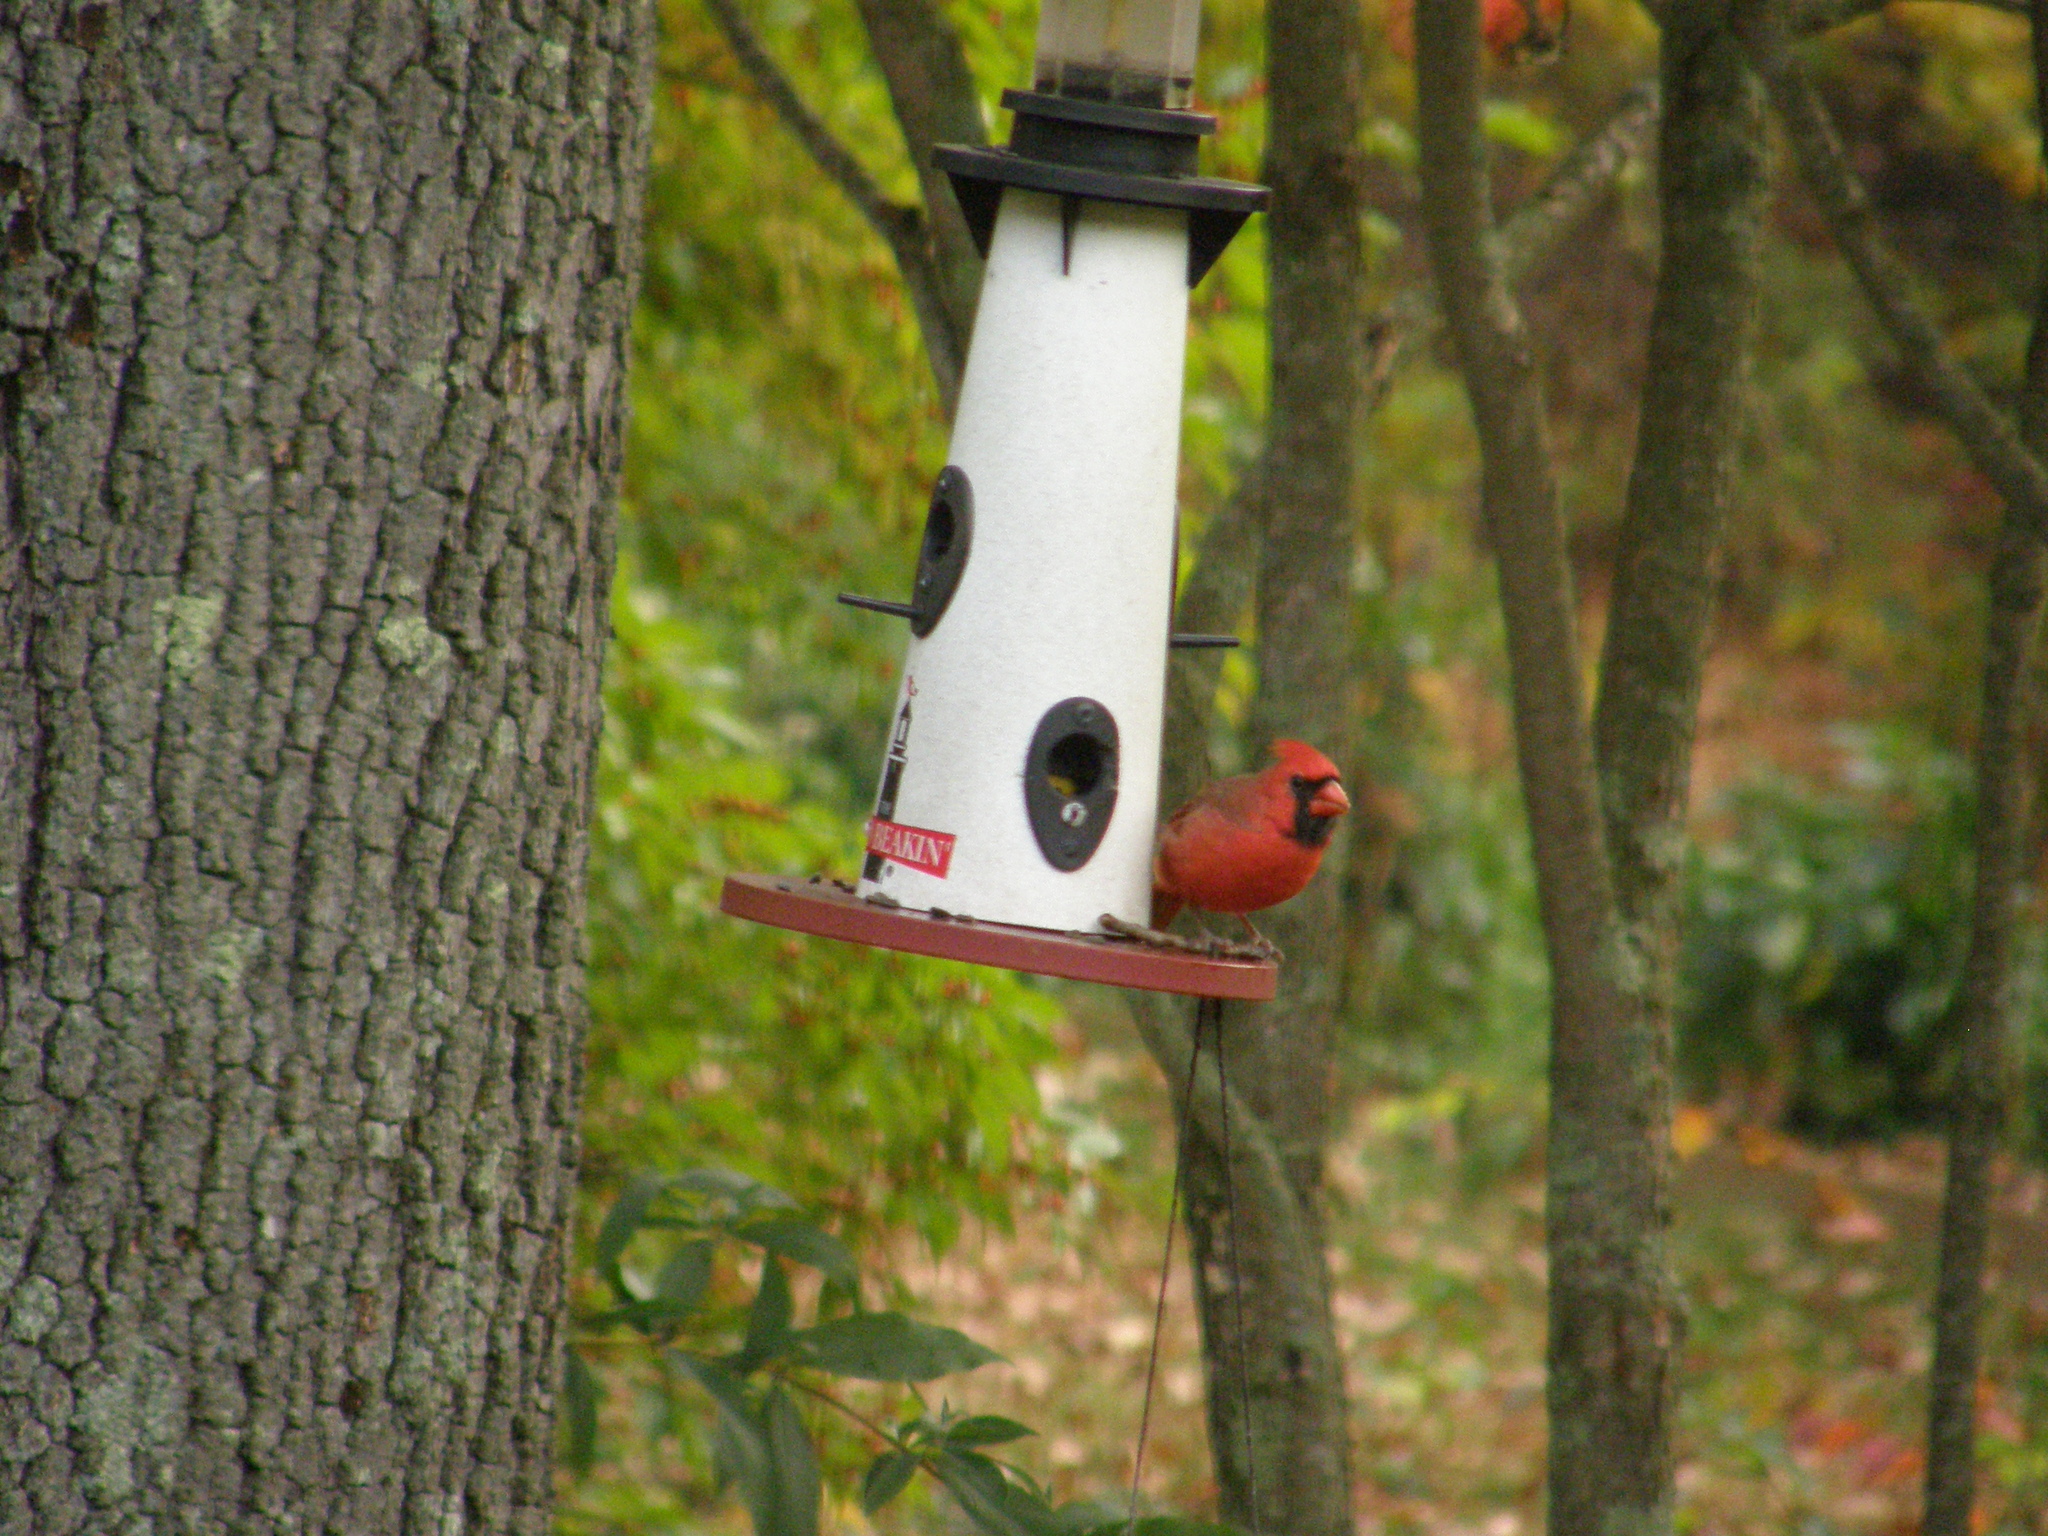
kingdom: Animalia
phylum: Chordata
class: Aves
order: Passeriformes
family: Cardinalidae
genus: Cardinalis
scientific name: Cardinalis cardinalis
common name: Northern cardinal
